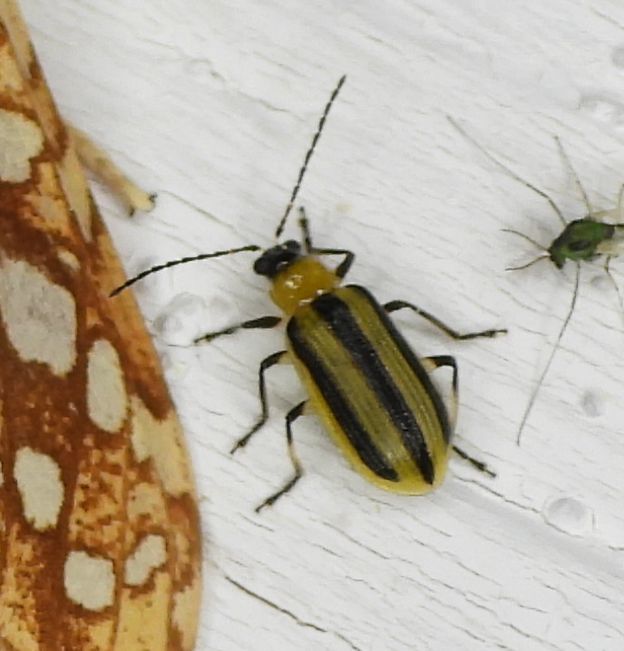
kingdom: Animalia
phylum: Arthropoda
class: Insecta
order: Coleoptera
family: Chrysomelidae
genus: Acalymma
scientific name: Acalymma vittatum
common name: Striped cucumber beetle
